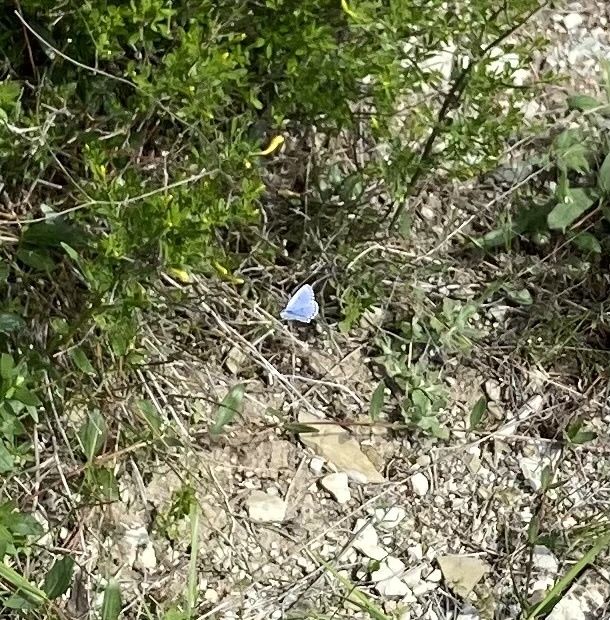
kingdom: Animalia
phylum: Arthropoda
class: Insecta
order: Lepidoptera
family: Lycaenidae
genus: Pseudophilotes
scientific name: Pseudophilotes baton
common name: Baton blue
